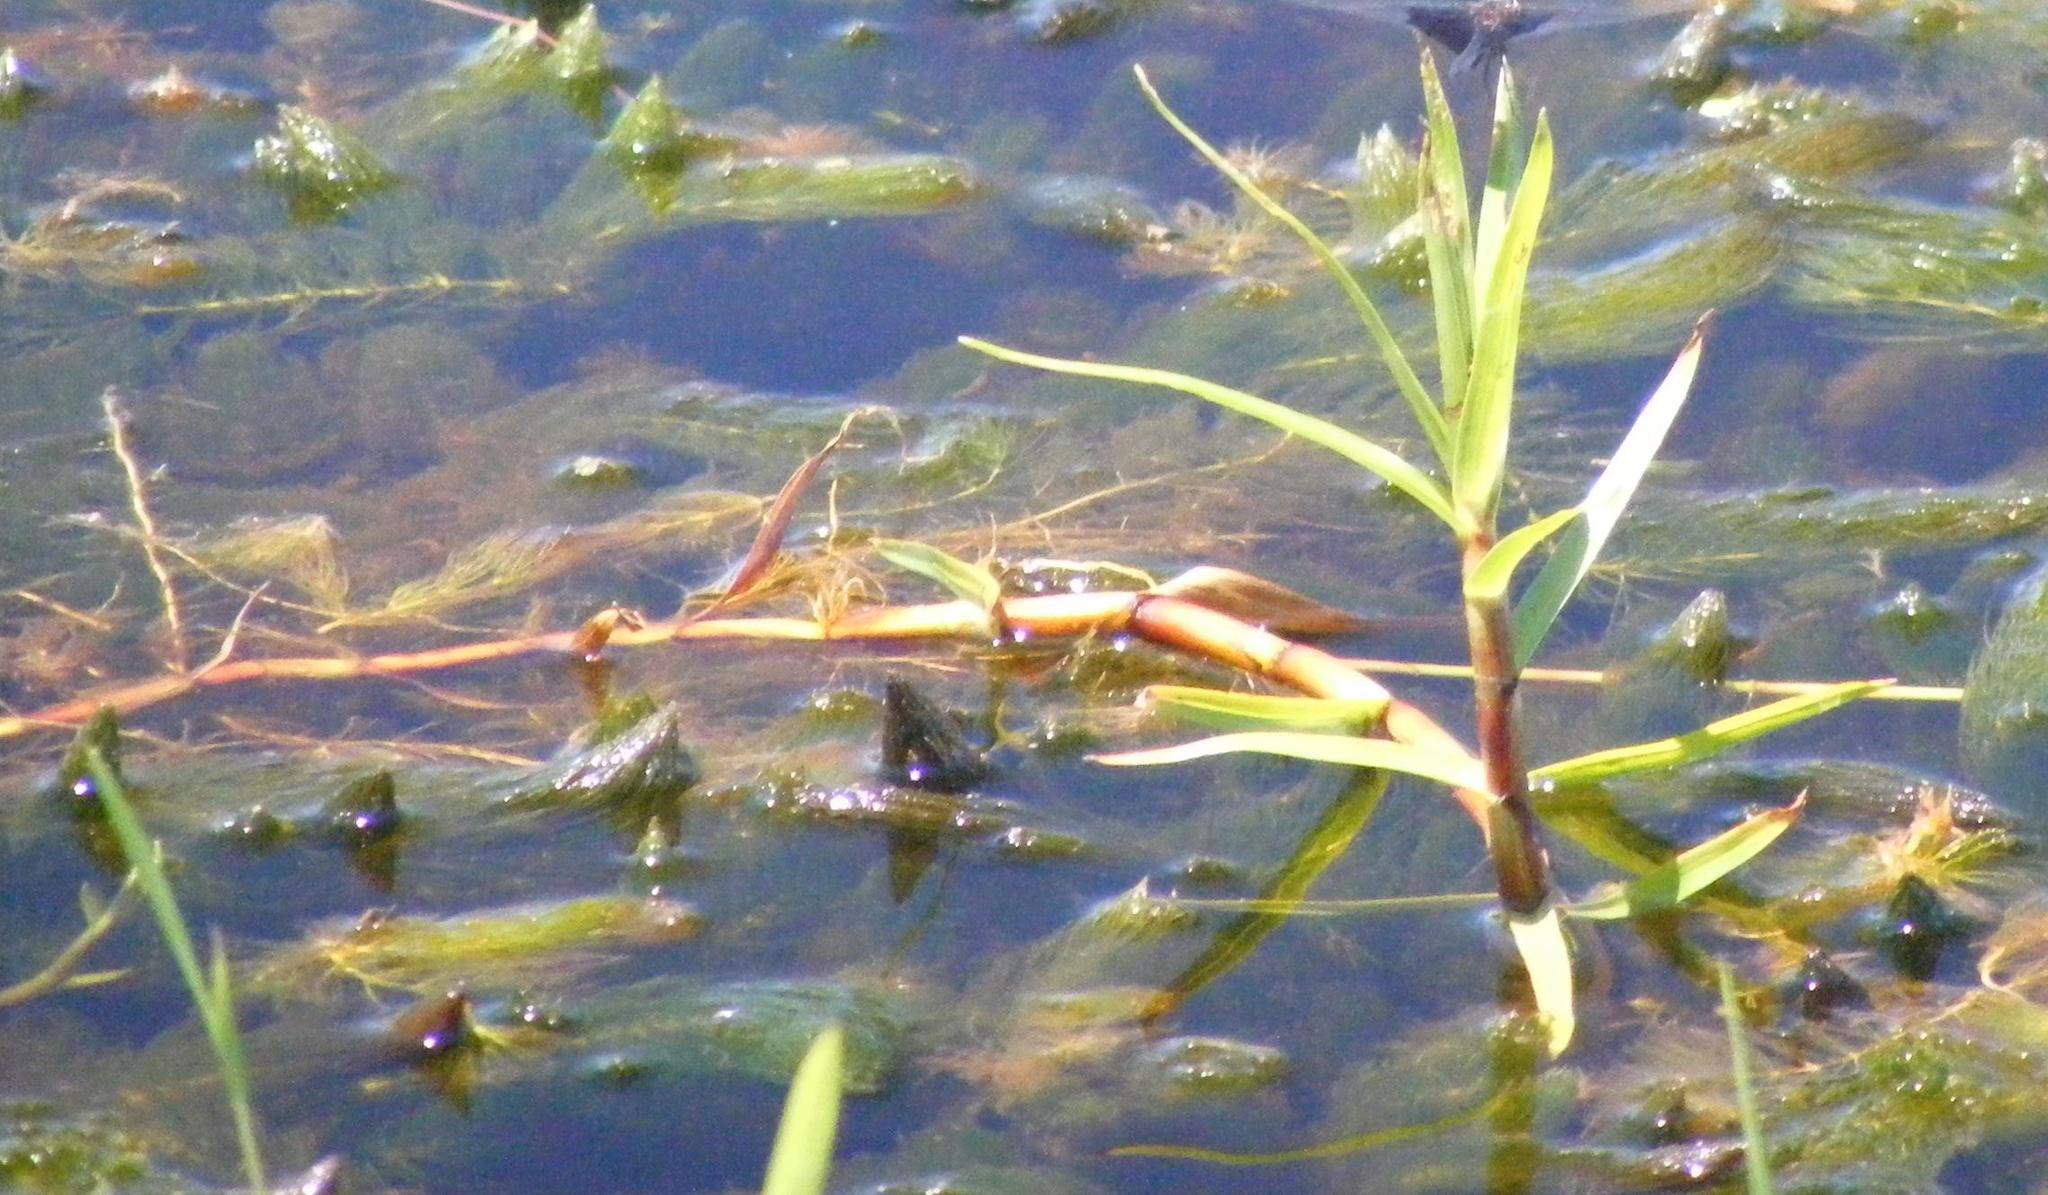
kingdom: Plantae
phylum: Tracheophyta
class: Liliopsida
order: Poales
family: Cyperaceae
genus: Cyperus
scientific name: Cyperus mundii
